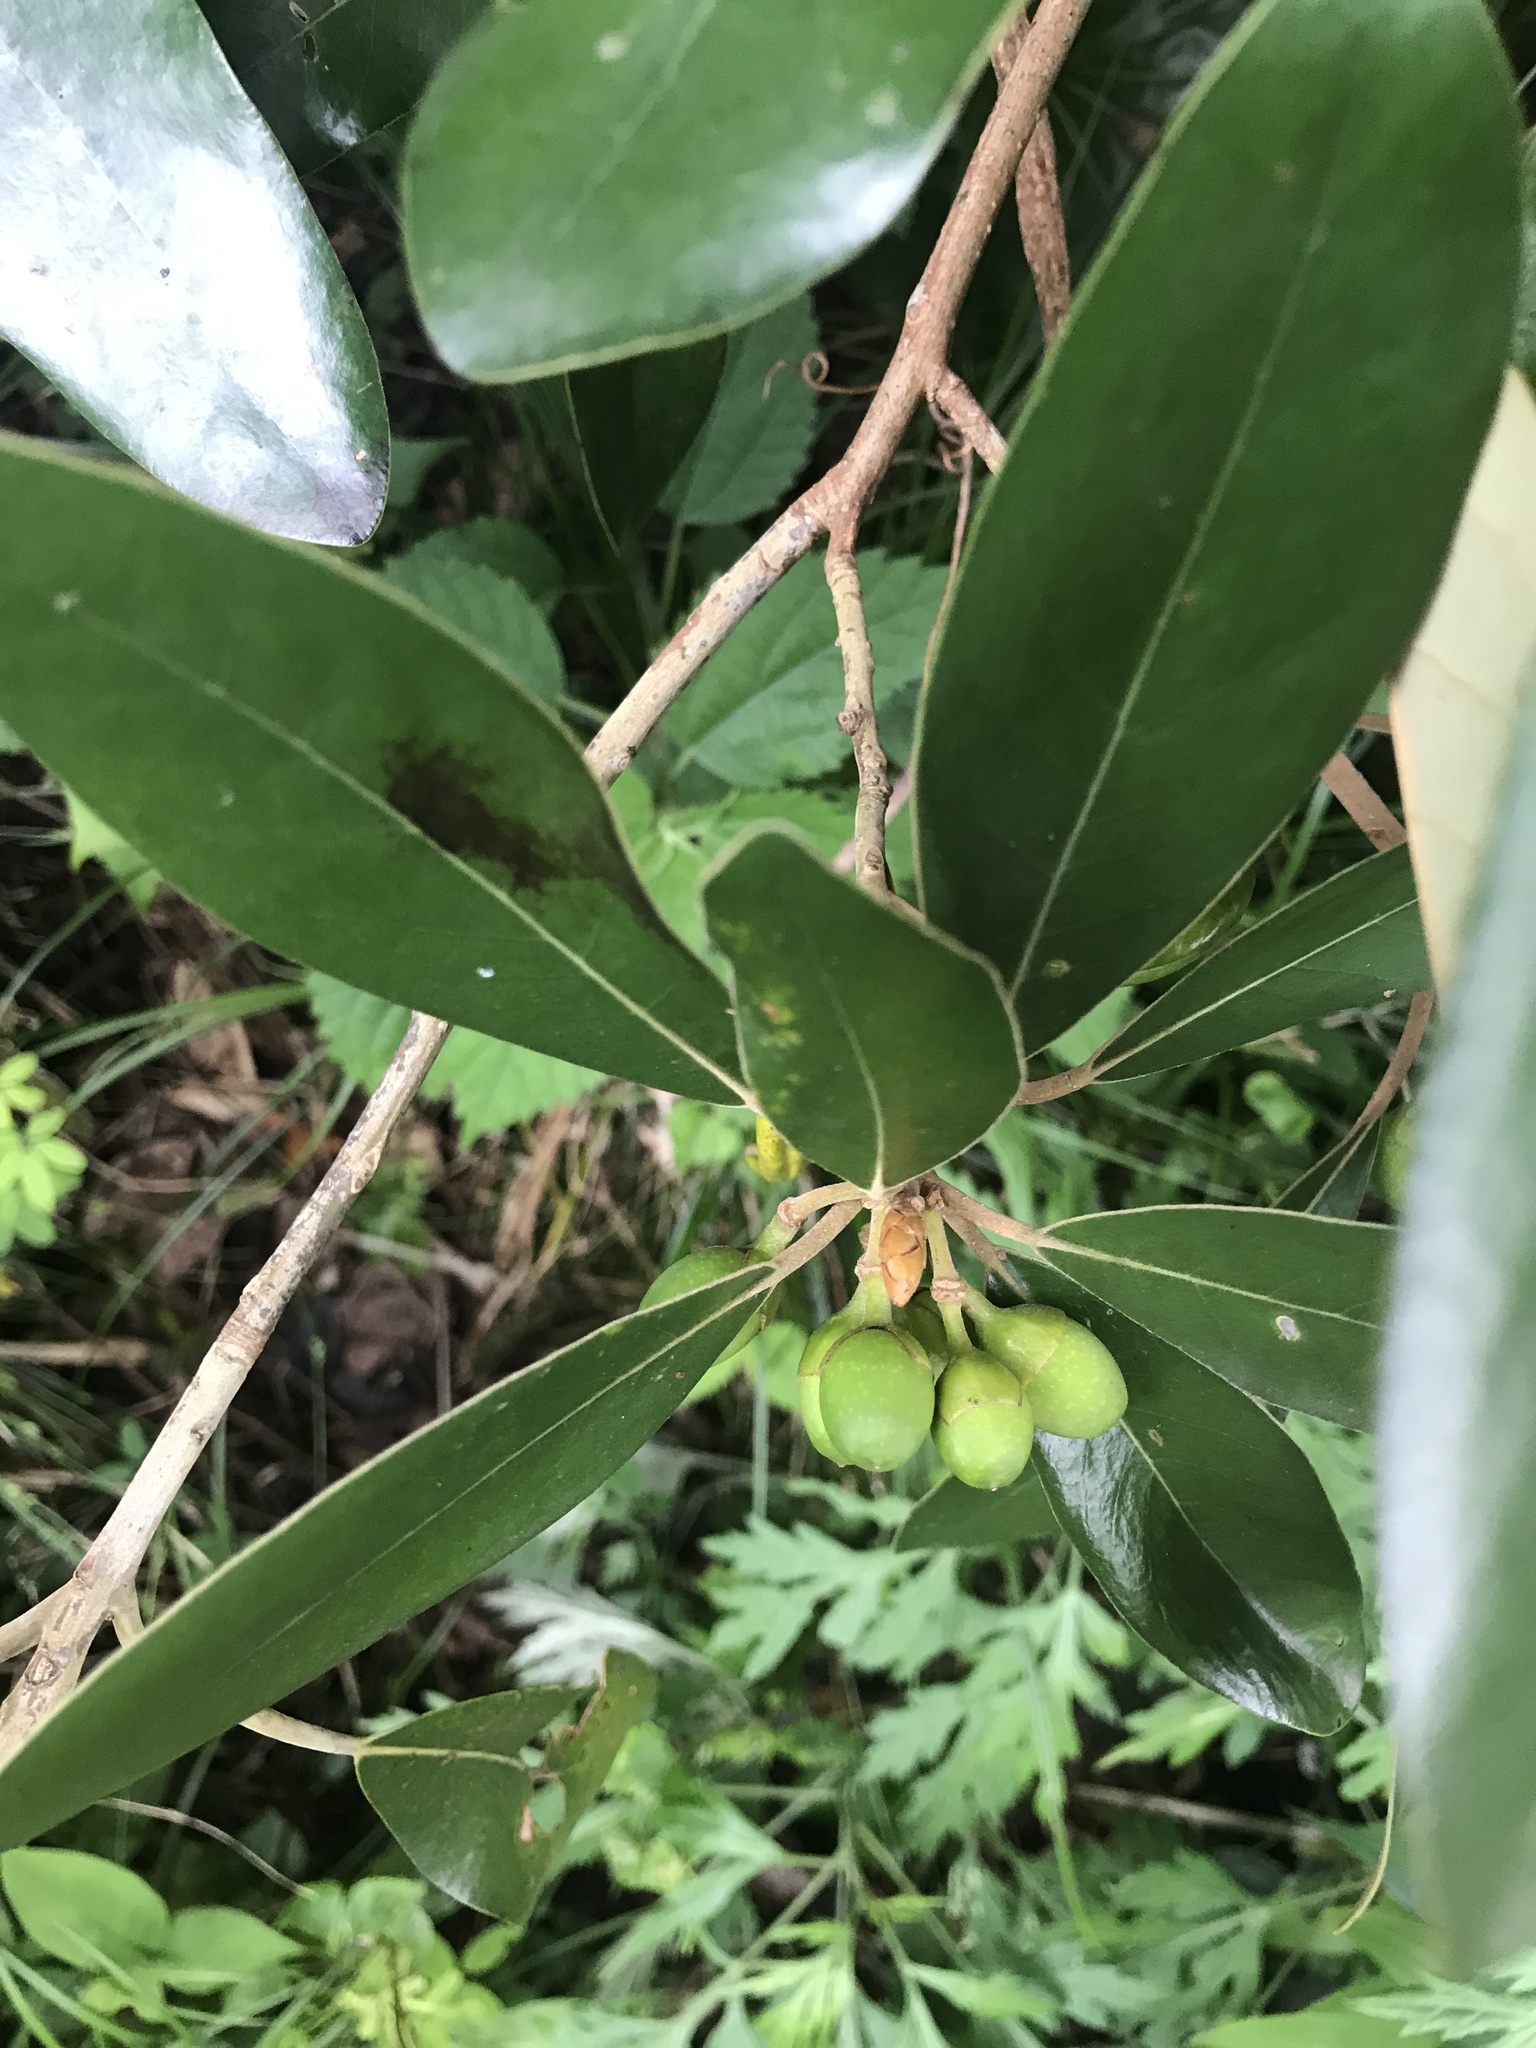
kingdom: Plantae
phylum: Tracheophyta
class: Magnoliopsida
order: Laurales
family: Lauraceae
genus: Litsea
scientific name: Litsea japonica
